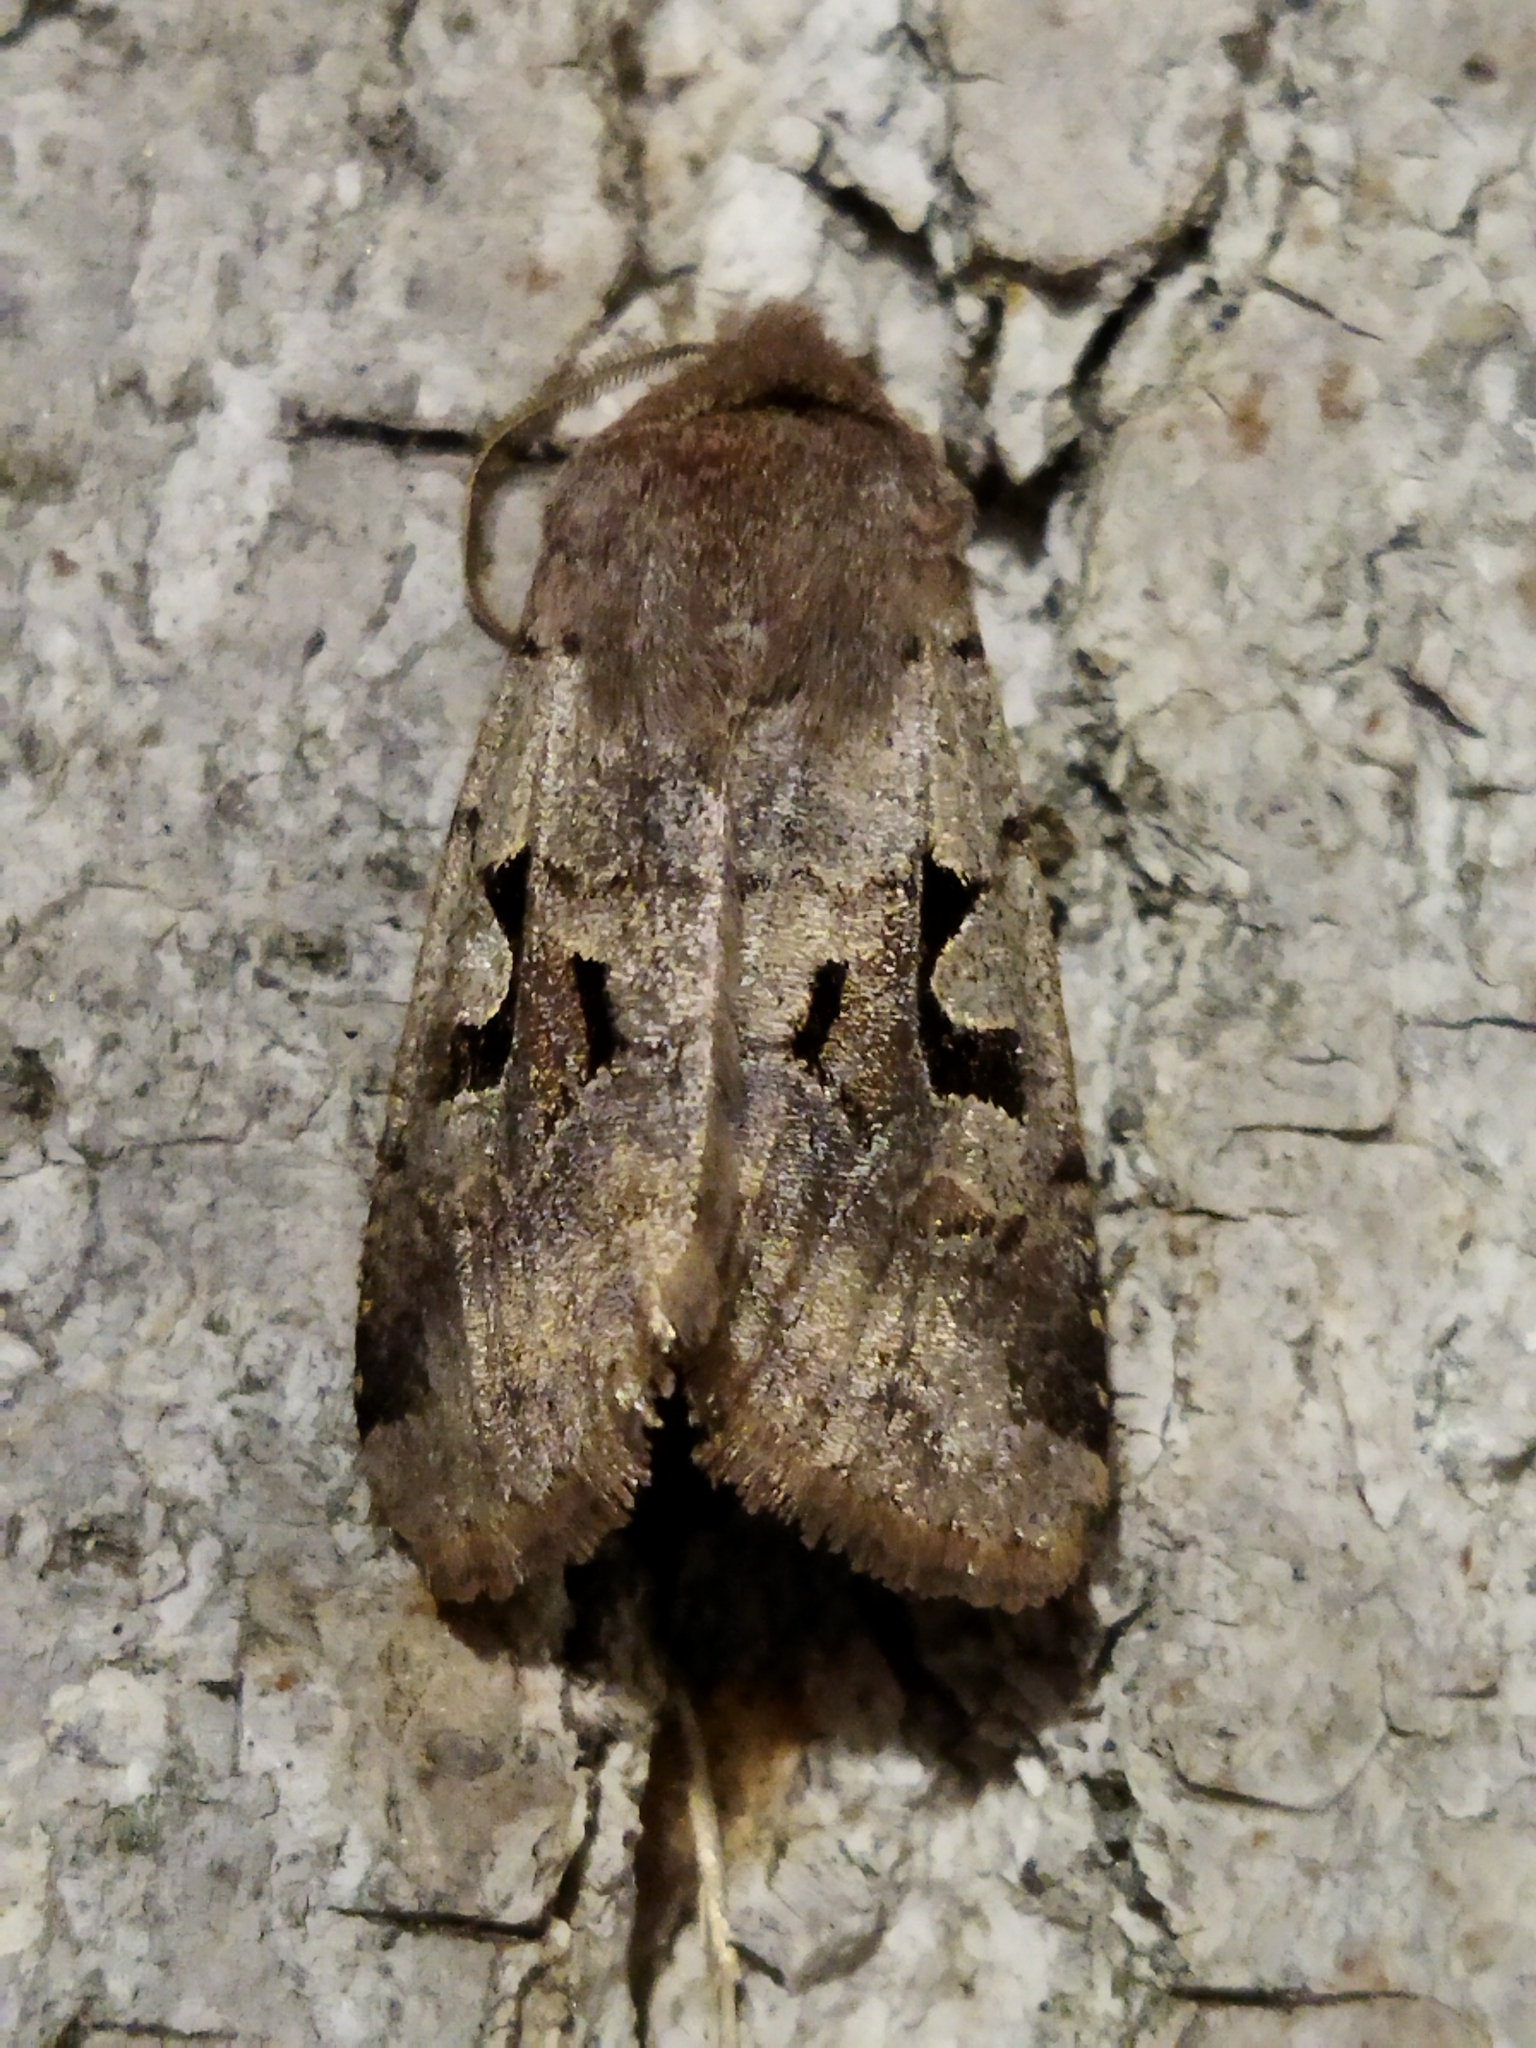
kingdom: Animalia
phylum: Arthropoda
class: Insecta
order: Lepidoptera
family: Noctuidae
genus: Orthosia
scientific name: Orthosia gothica
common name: Hebrew character
